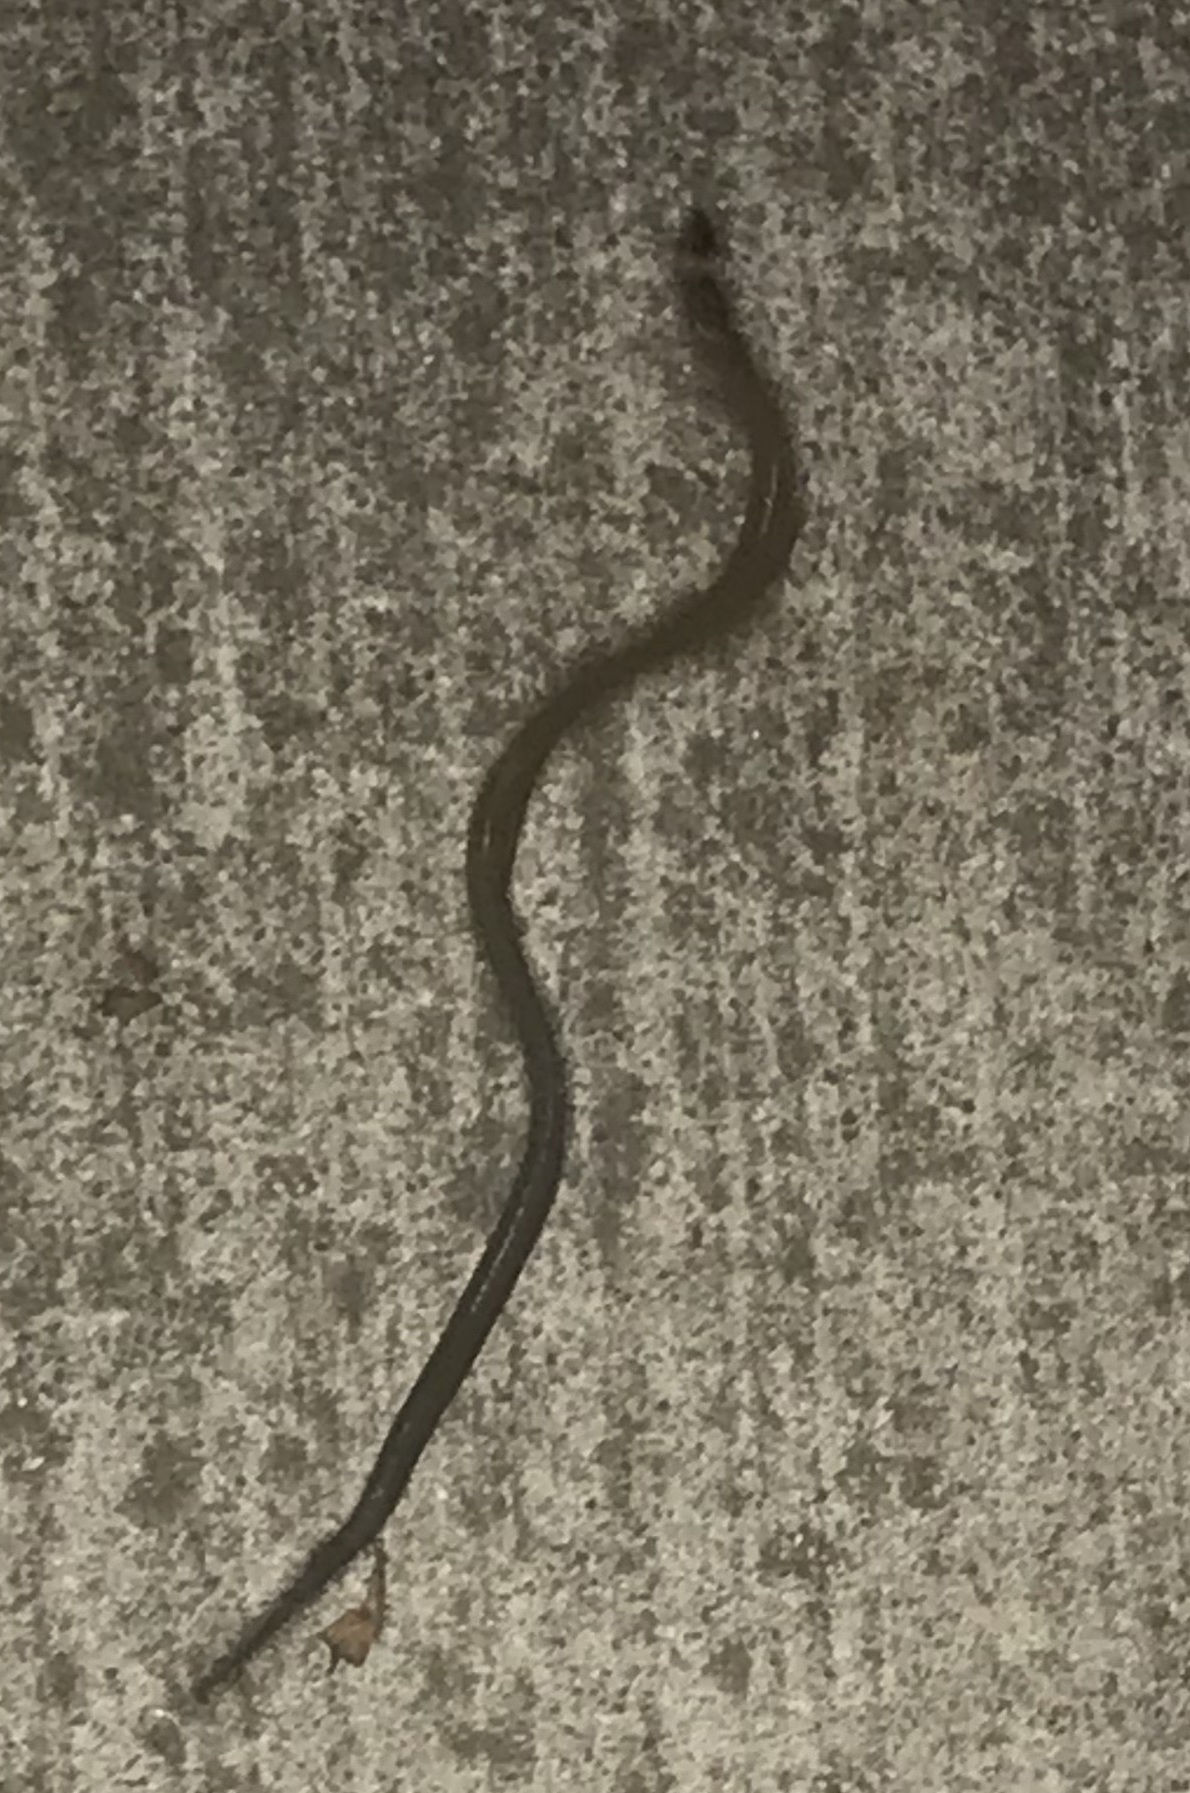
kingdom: Animalia
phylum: Chordata
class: Squamata
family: Scincidae
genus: Anomalopus
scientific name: Anomalopus verreauxii
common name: Three-clawed worm-skink
